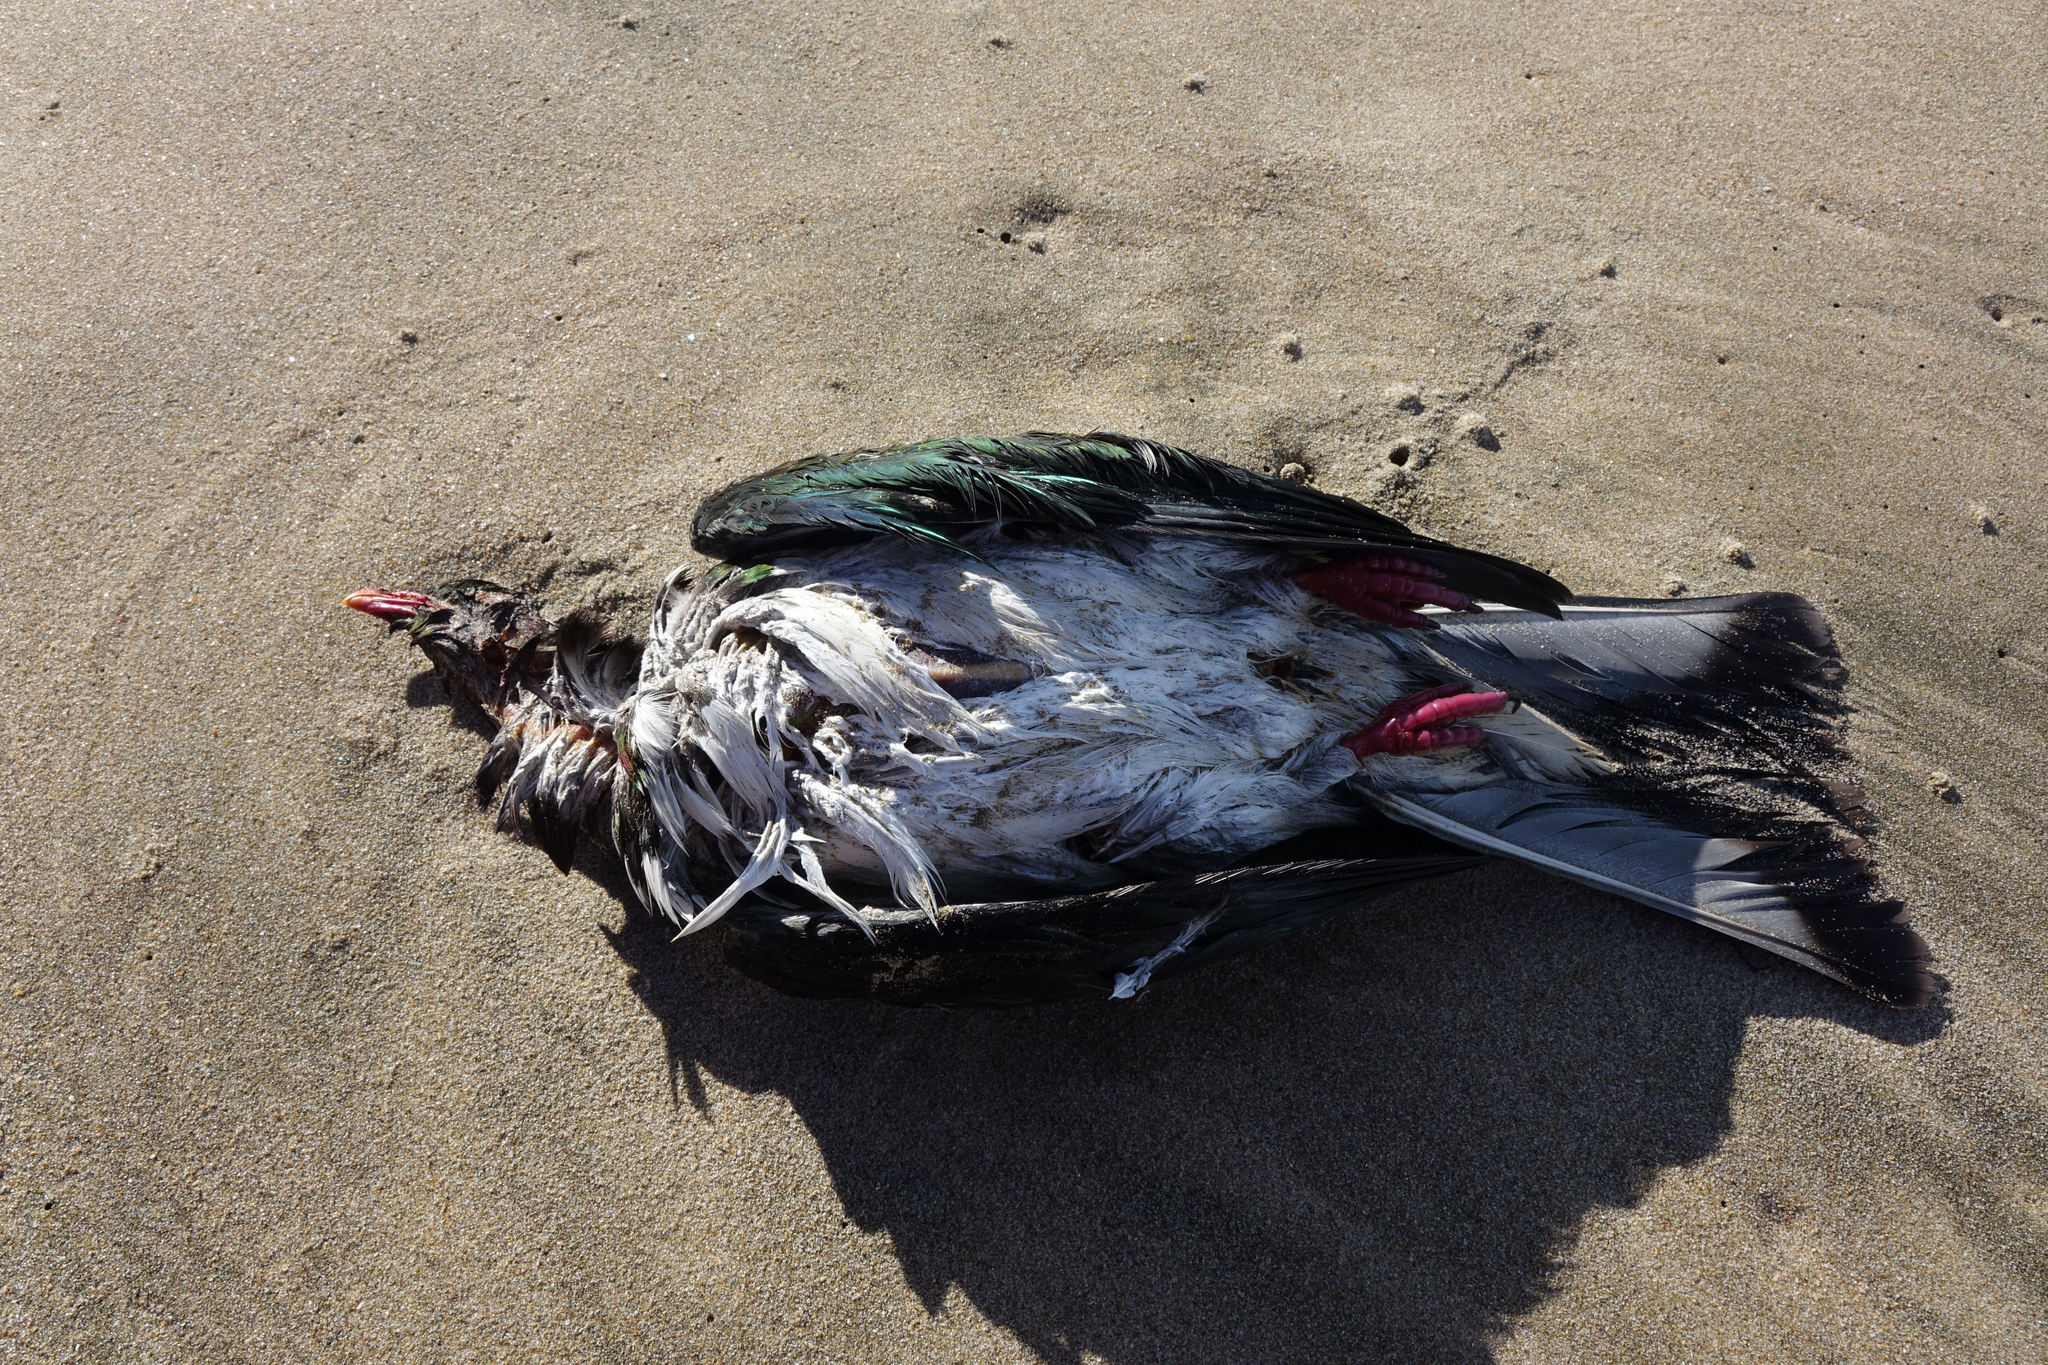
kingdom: Animalia
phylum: Chordata
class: Aves
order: Columbiformes
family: Columbidae
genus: Hemiphaga
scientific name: Hemiphaga novaeseelandiae
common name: New zealand pigeon
